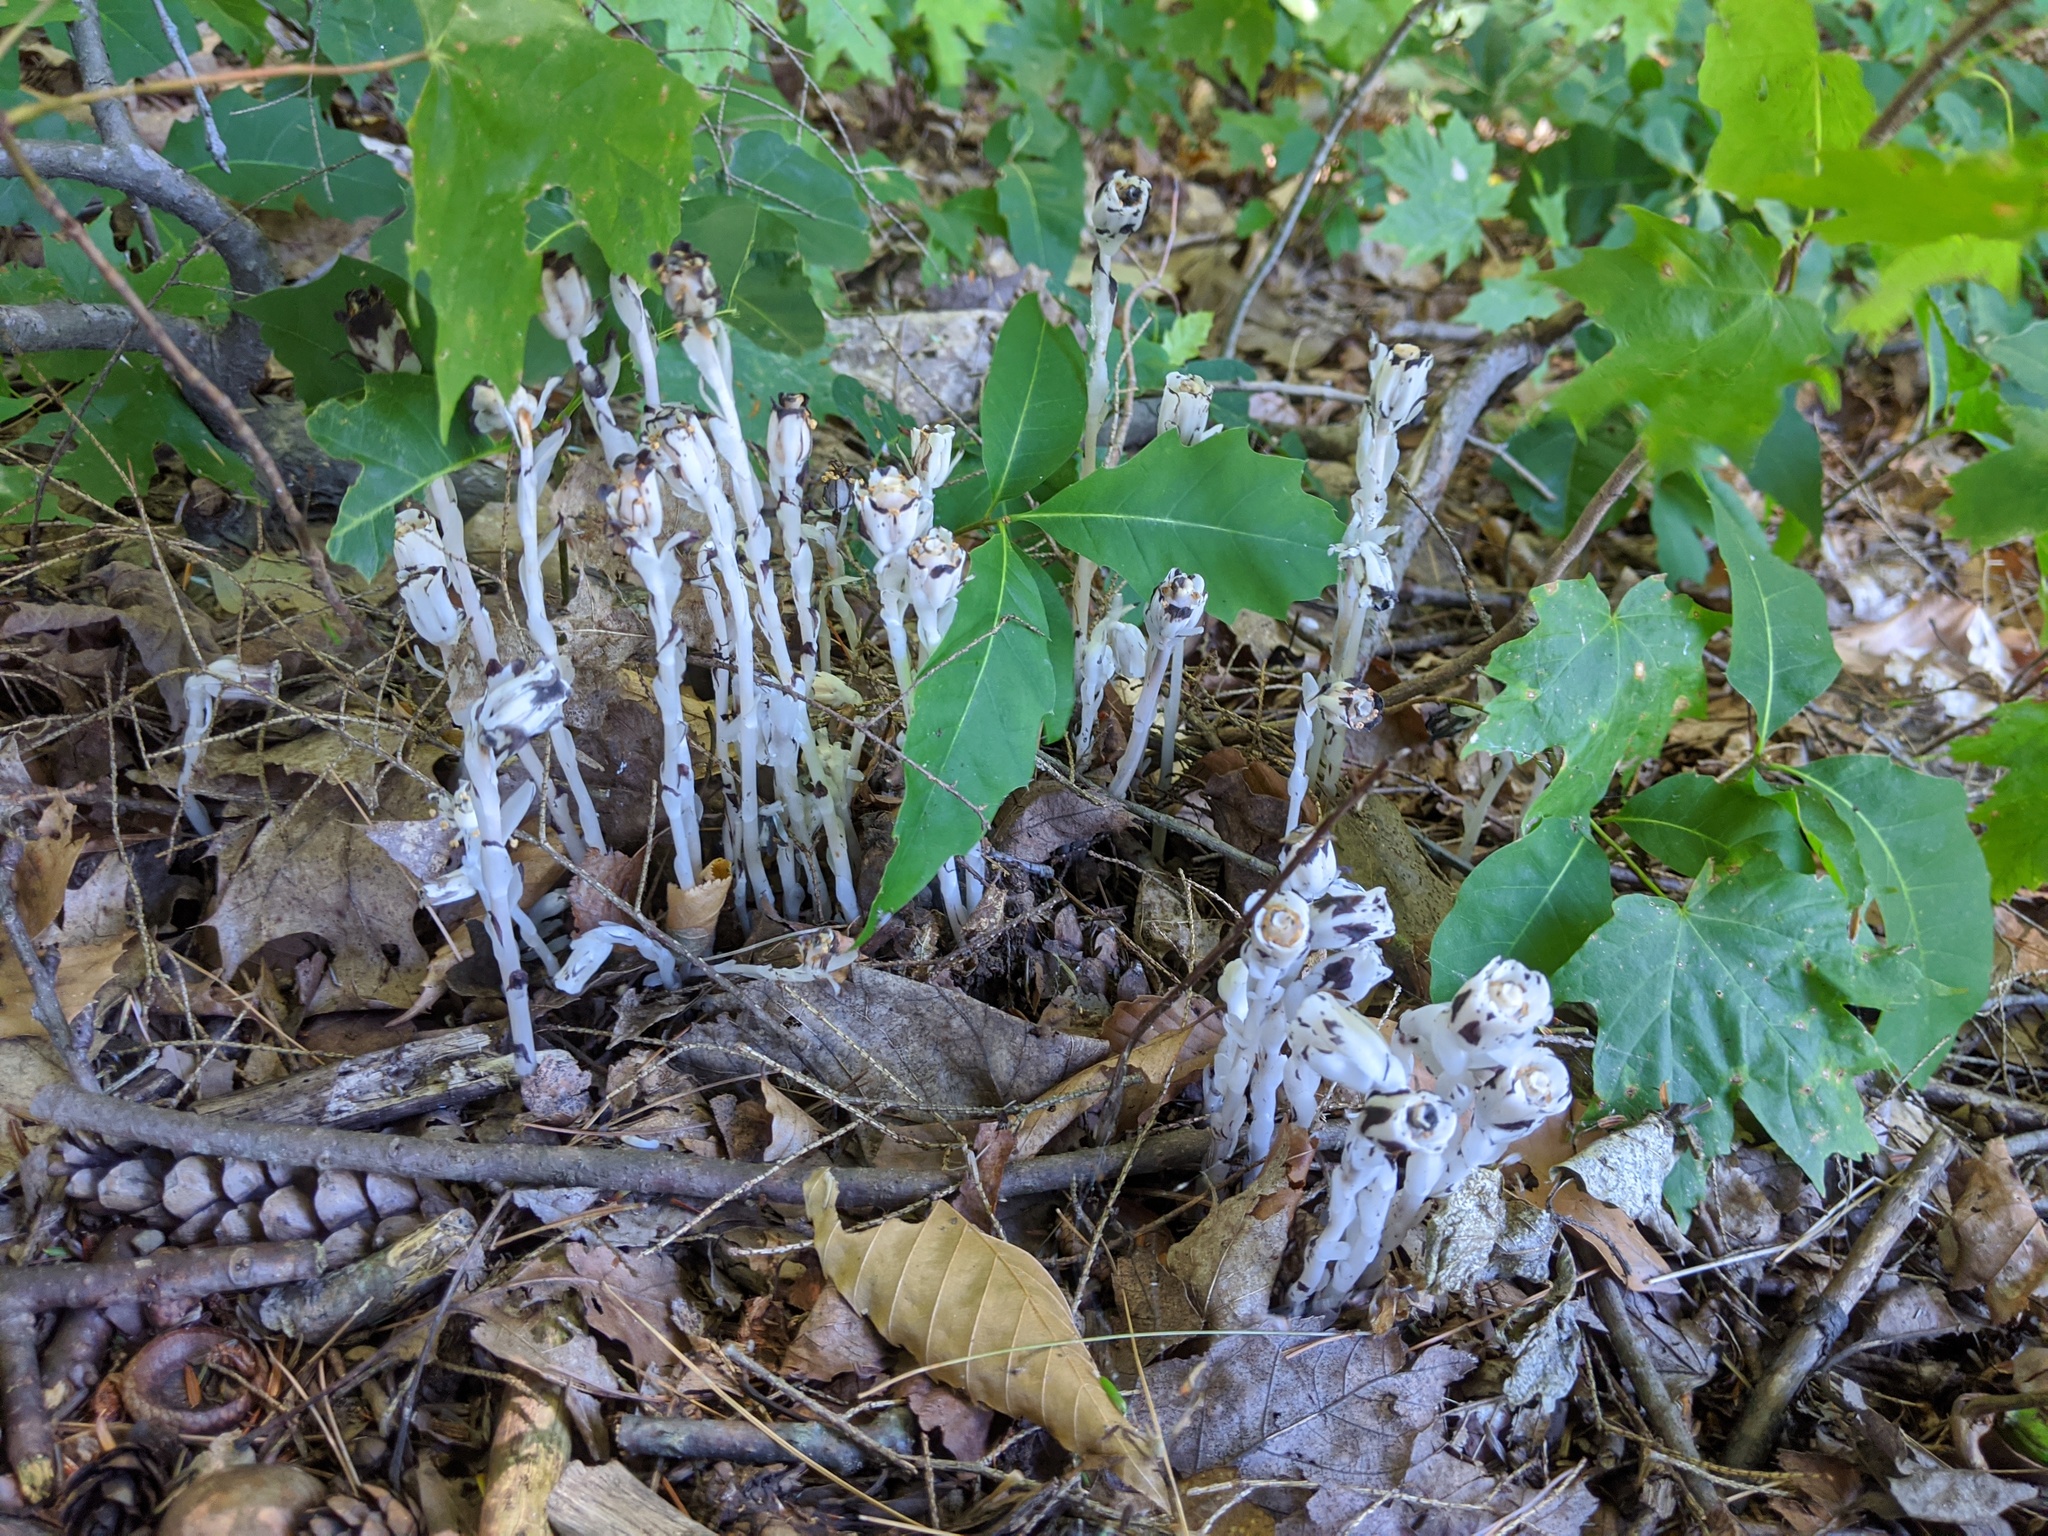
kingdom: Plantae
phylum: Tracheophyta
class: Magnoliopsida
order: Ericales
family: Ericaceae
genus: Monotropa
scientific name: Monotropa uniflora
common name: Convulsion root
